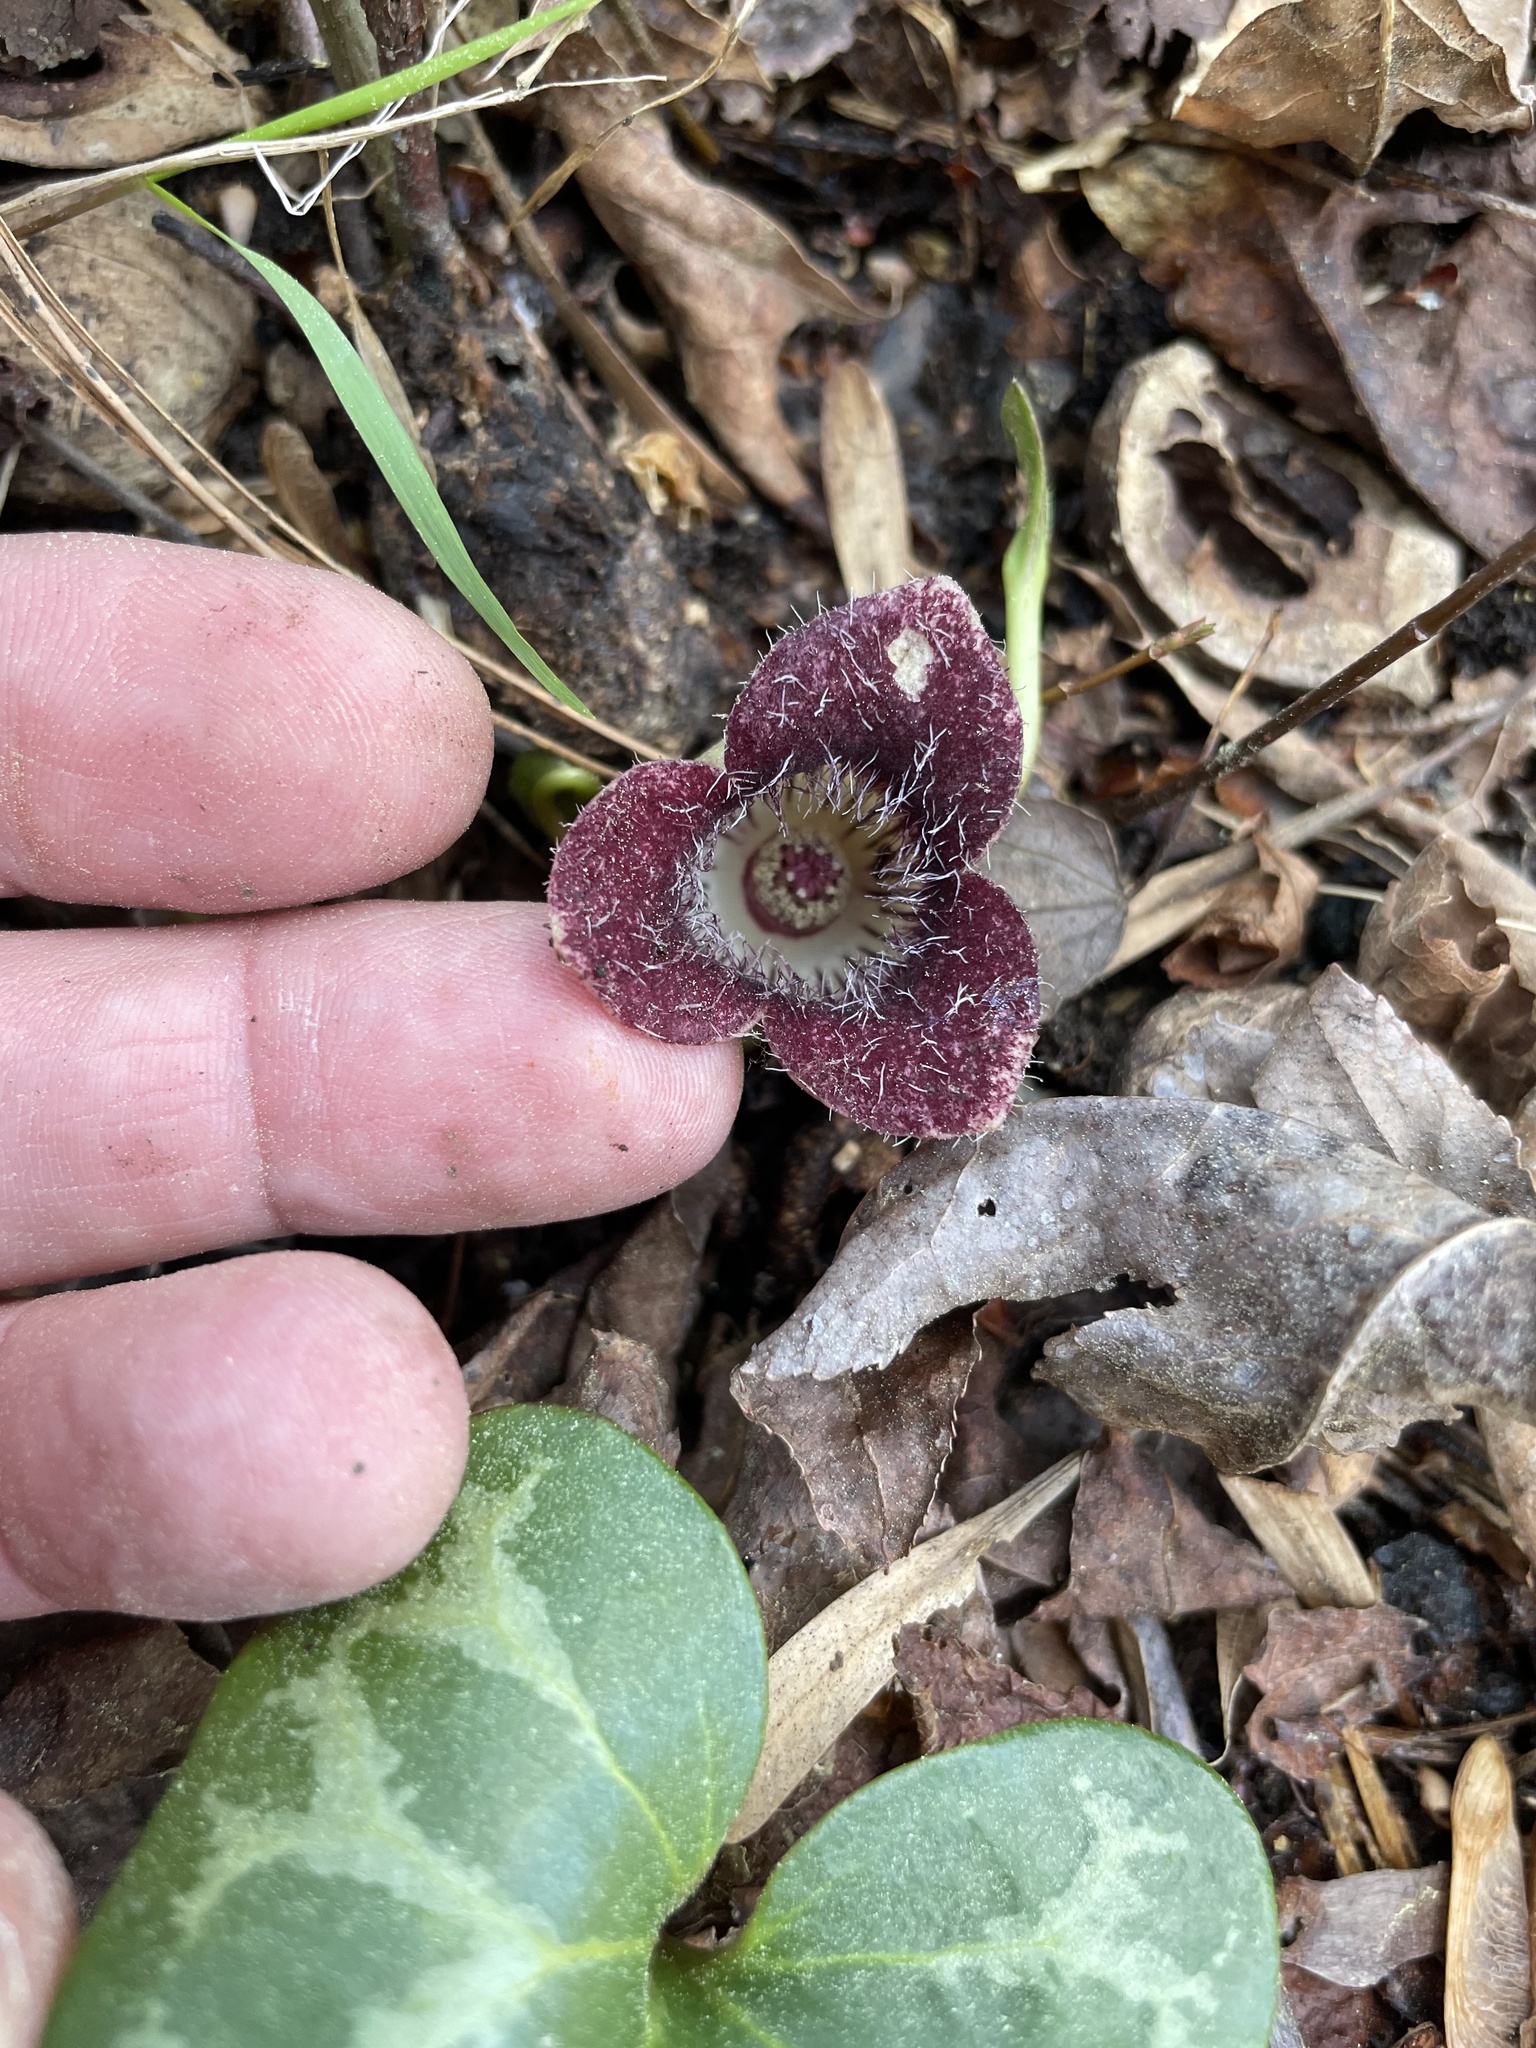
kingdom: Plantae
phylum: Tracheophyta
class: Magnoliopsida
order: Piperales
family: Aristolochiaceae
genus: Hexastylis
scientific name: Hexastylis lewisii
